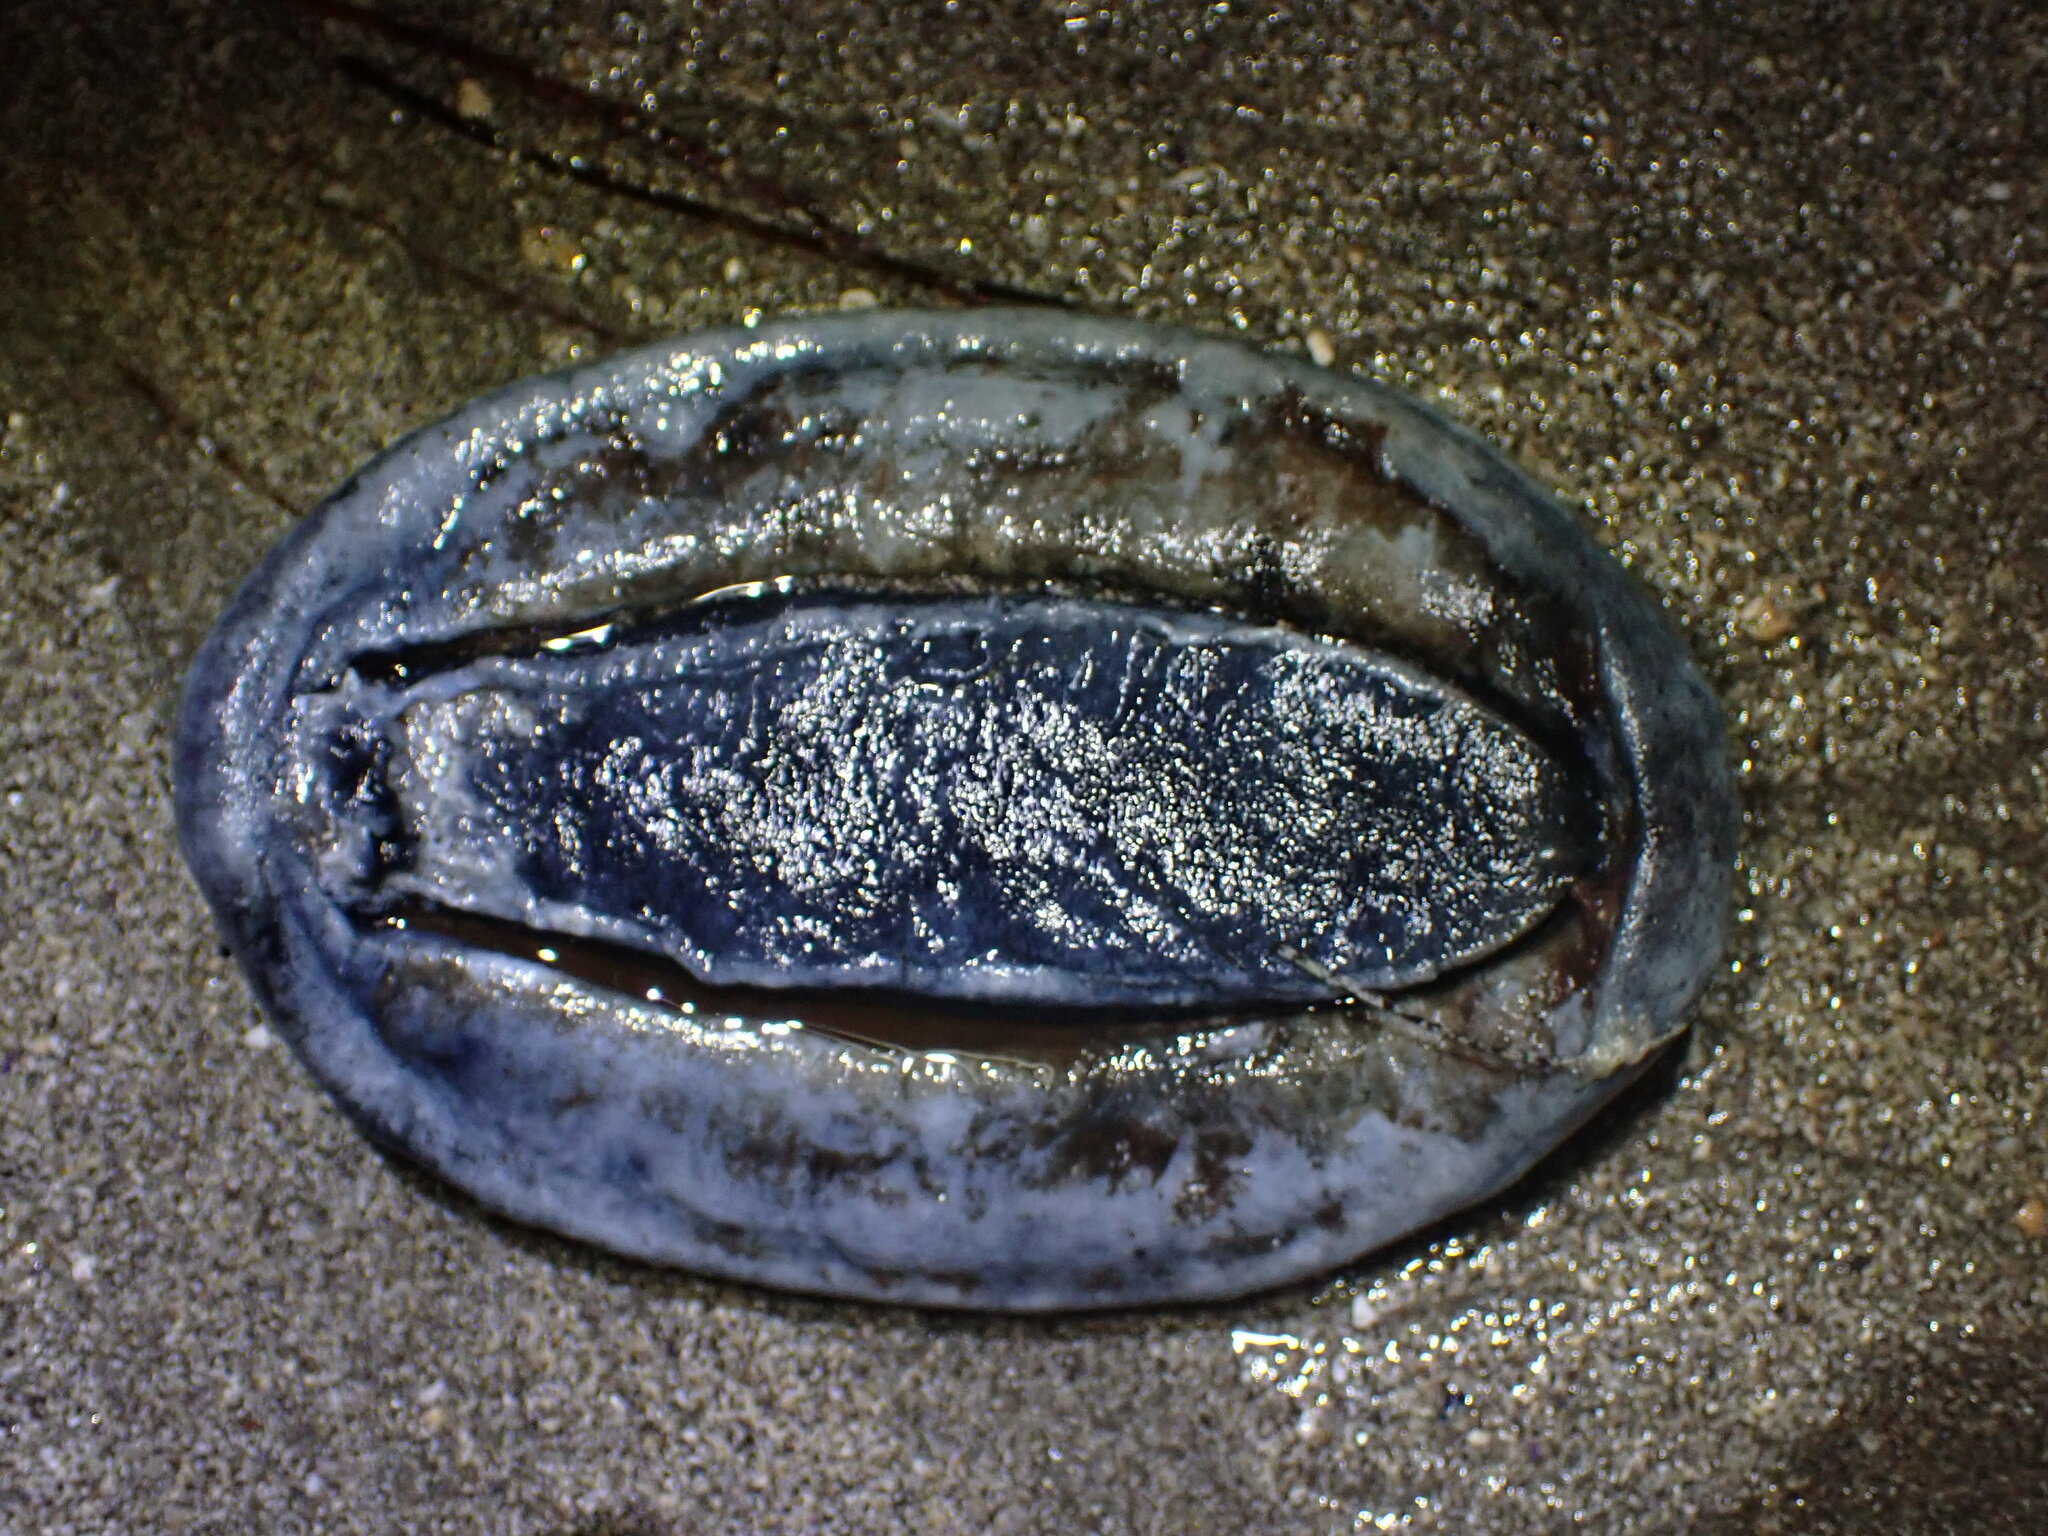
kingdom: Animalia
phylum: Mollusca
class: Polyplacophora
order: Chitonida
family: Acanthochitonidae
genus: Cryptochiton
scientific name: Cryptochiton stelleri
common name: Giant pacific chiton
